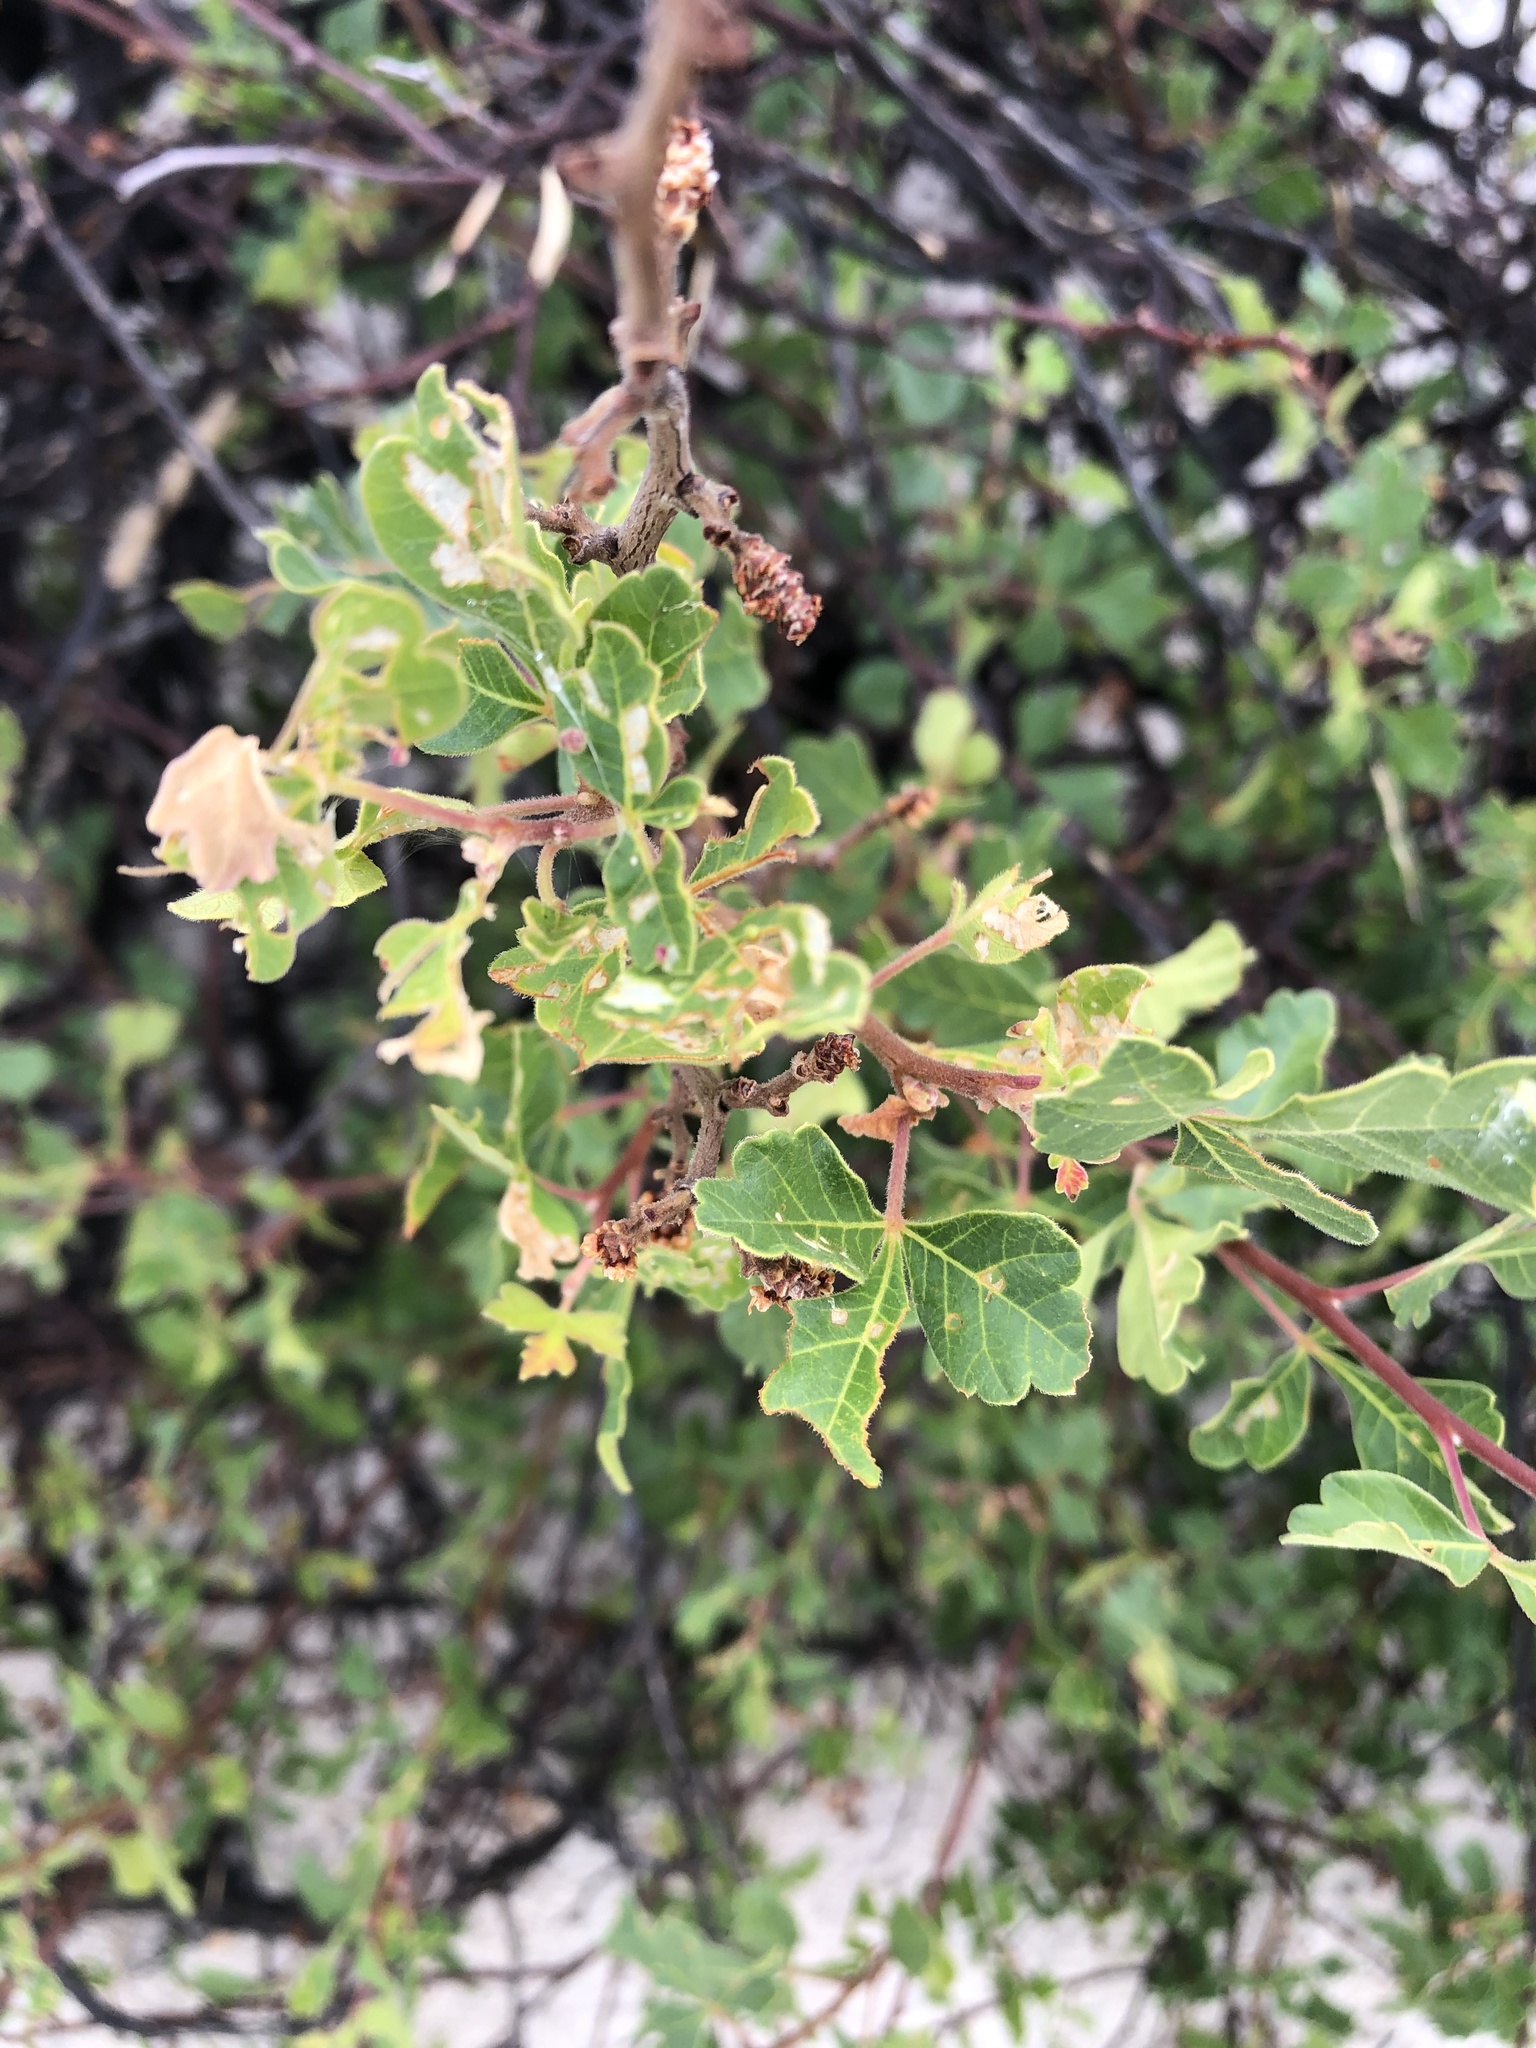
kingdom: Plantae
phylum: Tracheophyta
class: Magnoliopsida
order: Sapindales
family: Anacardiaceae
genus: Rhus
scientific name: Rhus trilobata
